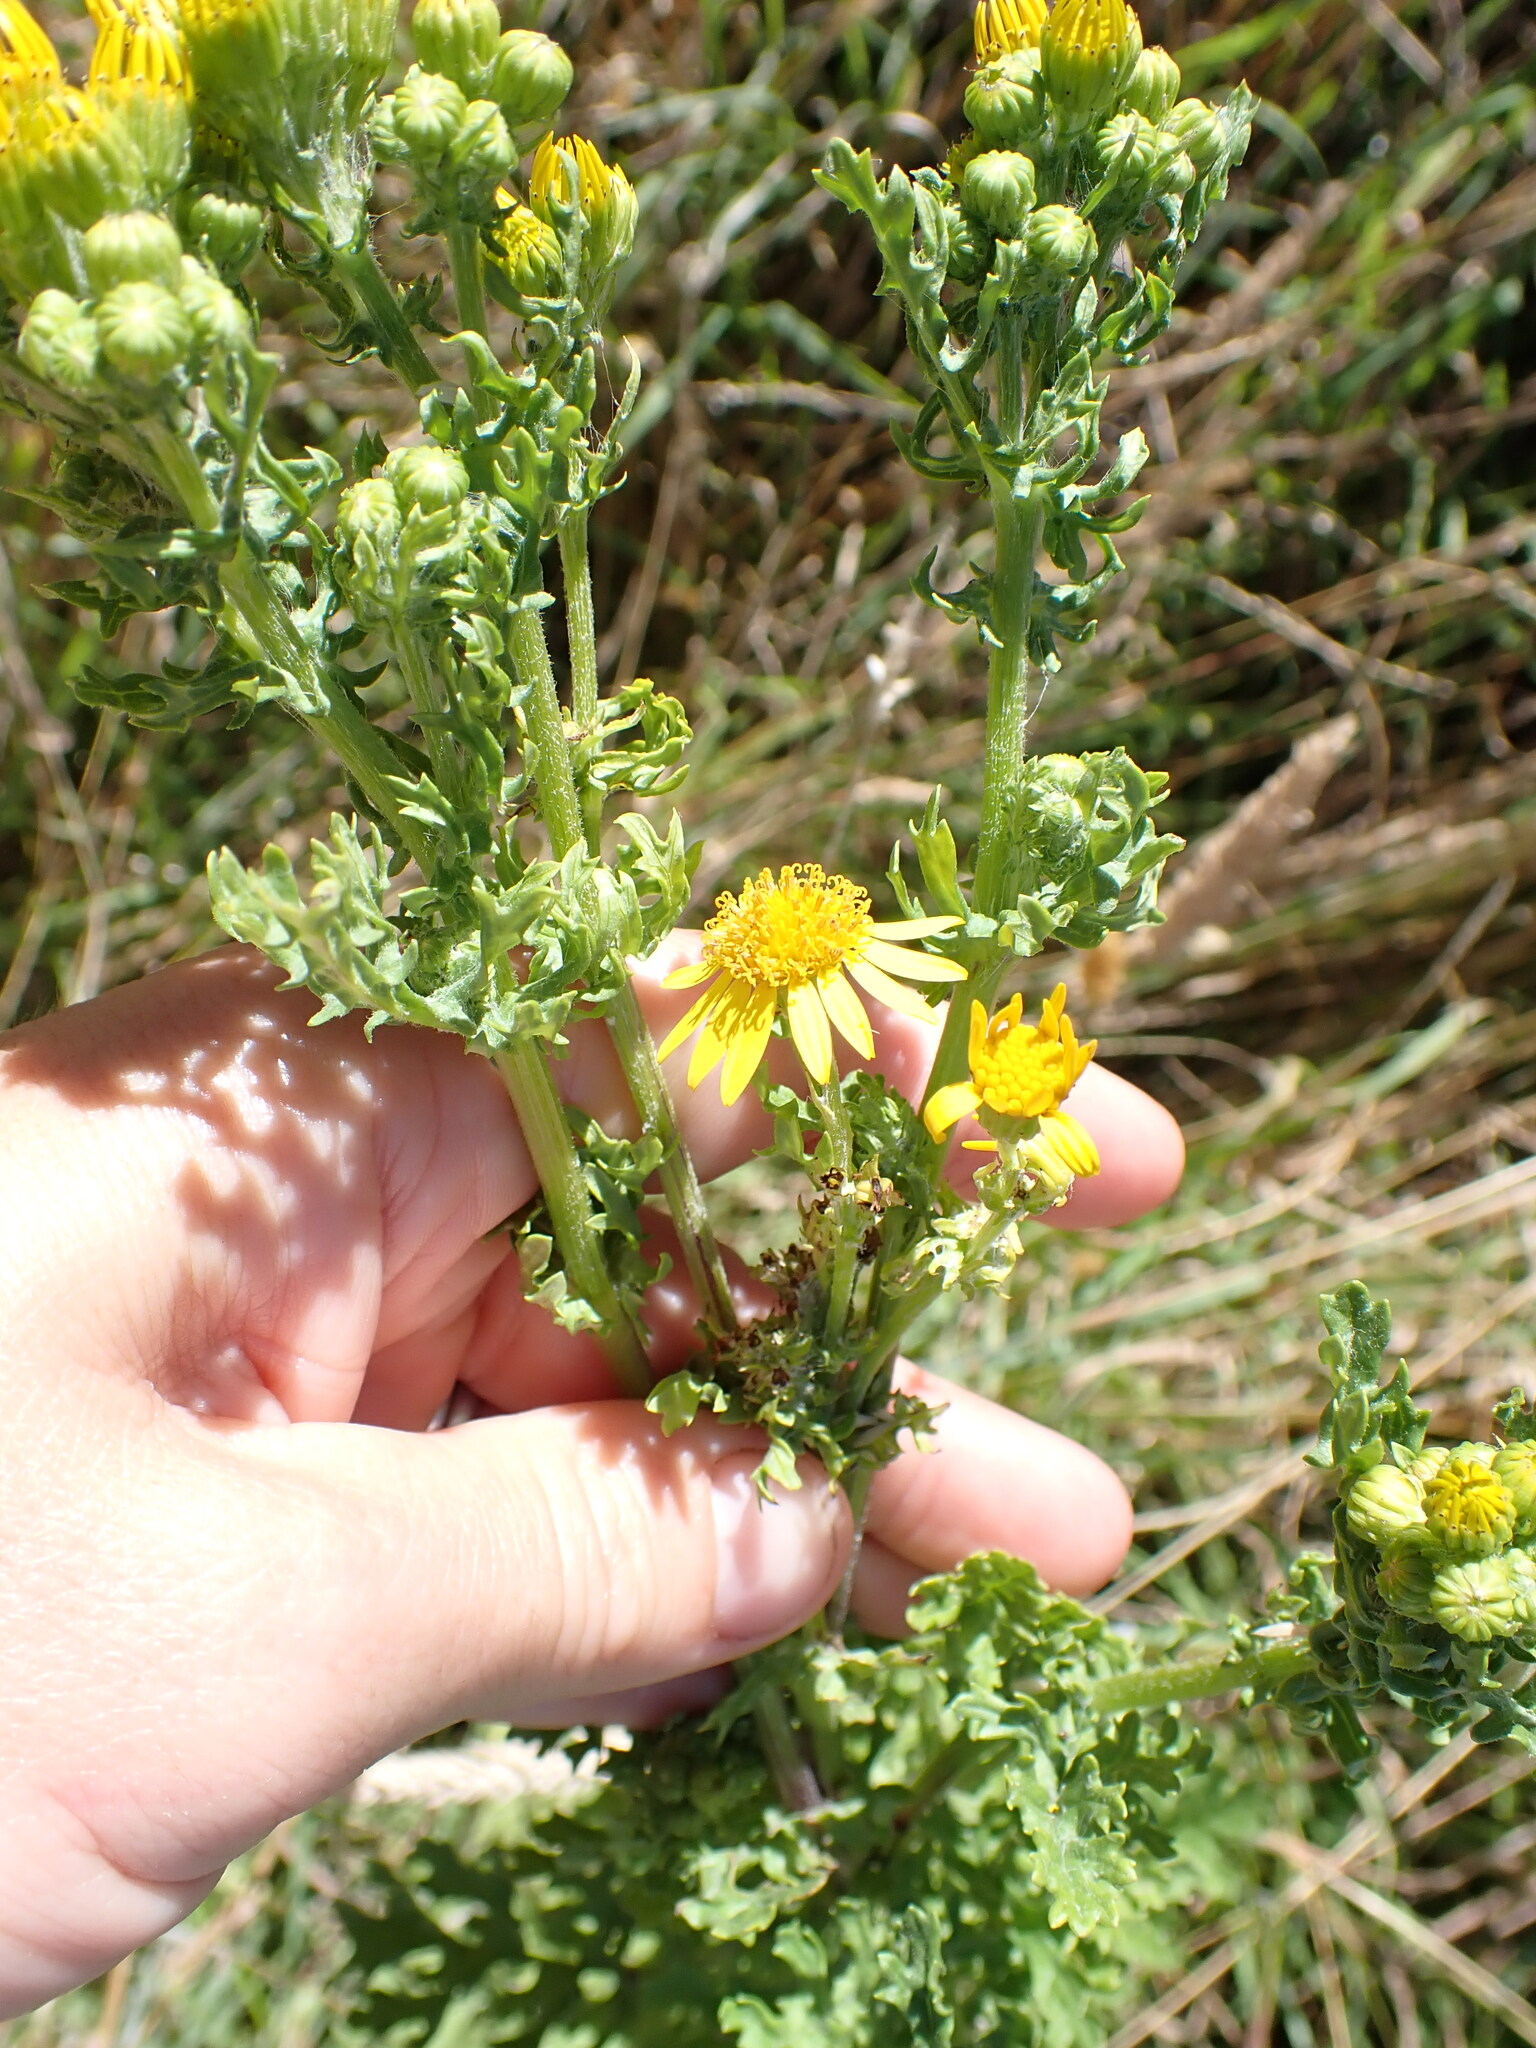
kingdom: Plantae
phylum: Tracheophyta
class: Magnoliopsida
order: Asterales
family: Asteraceae
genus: Jacobaea
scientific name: Jacobaea vulgaris
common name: Stinking willie
